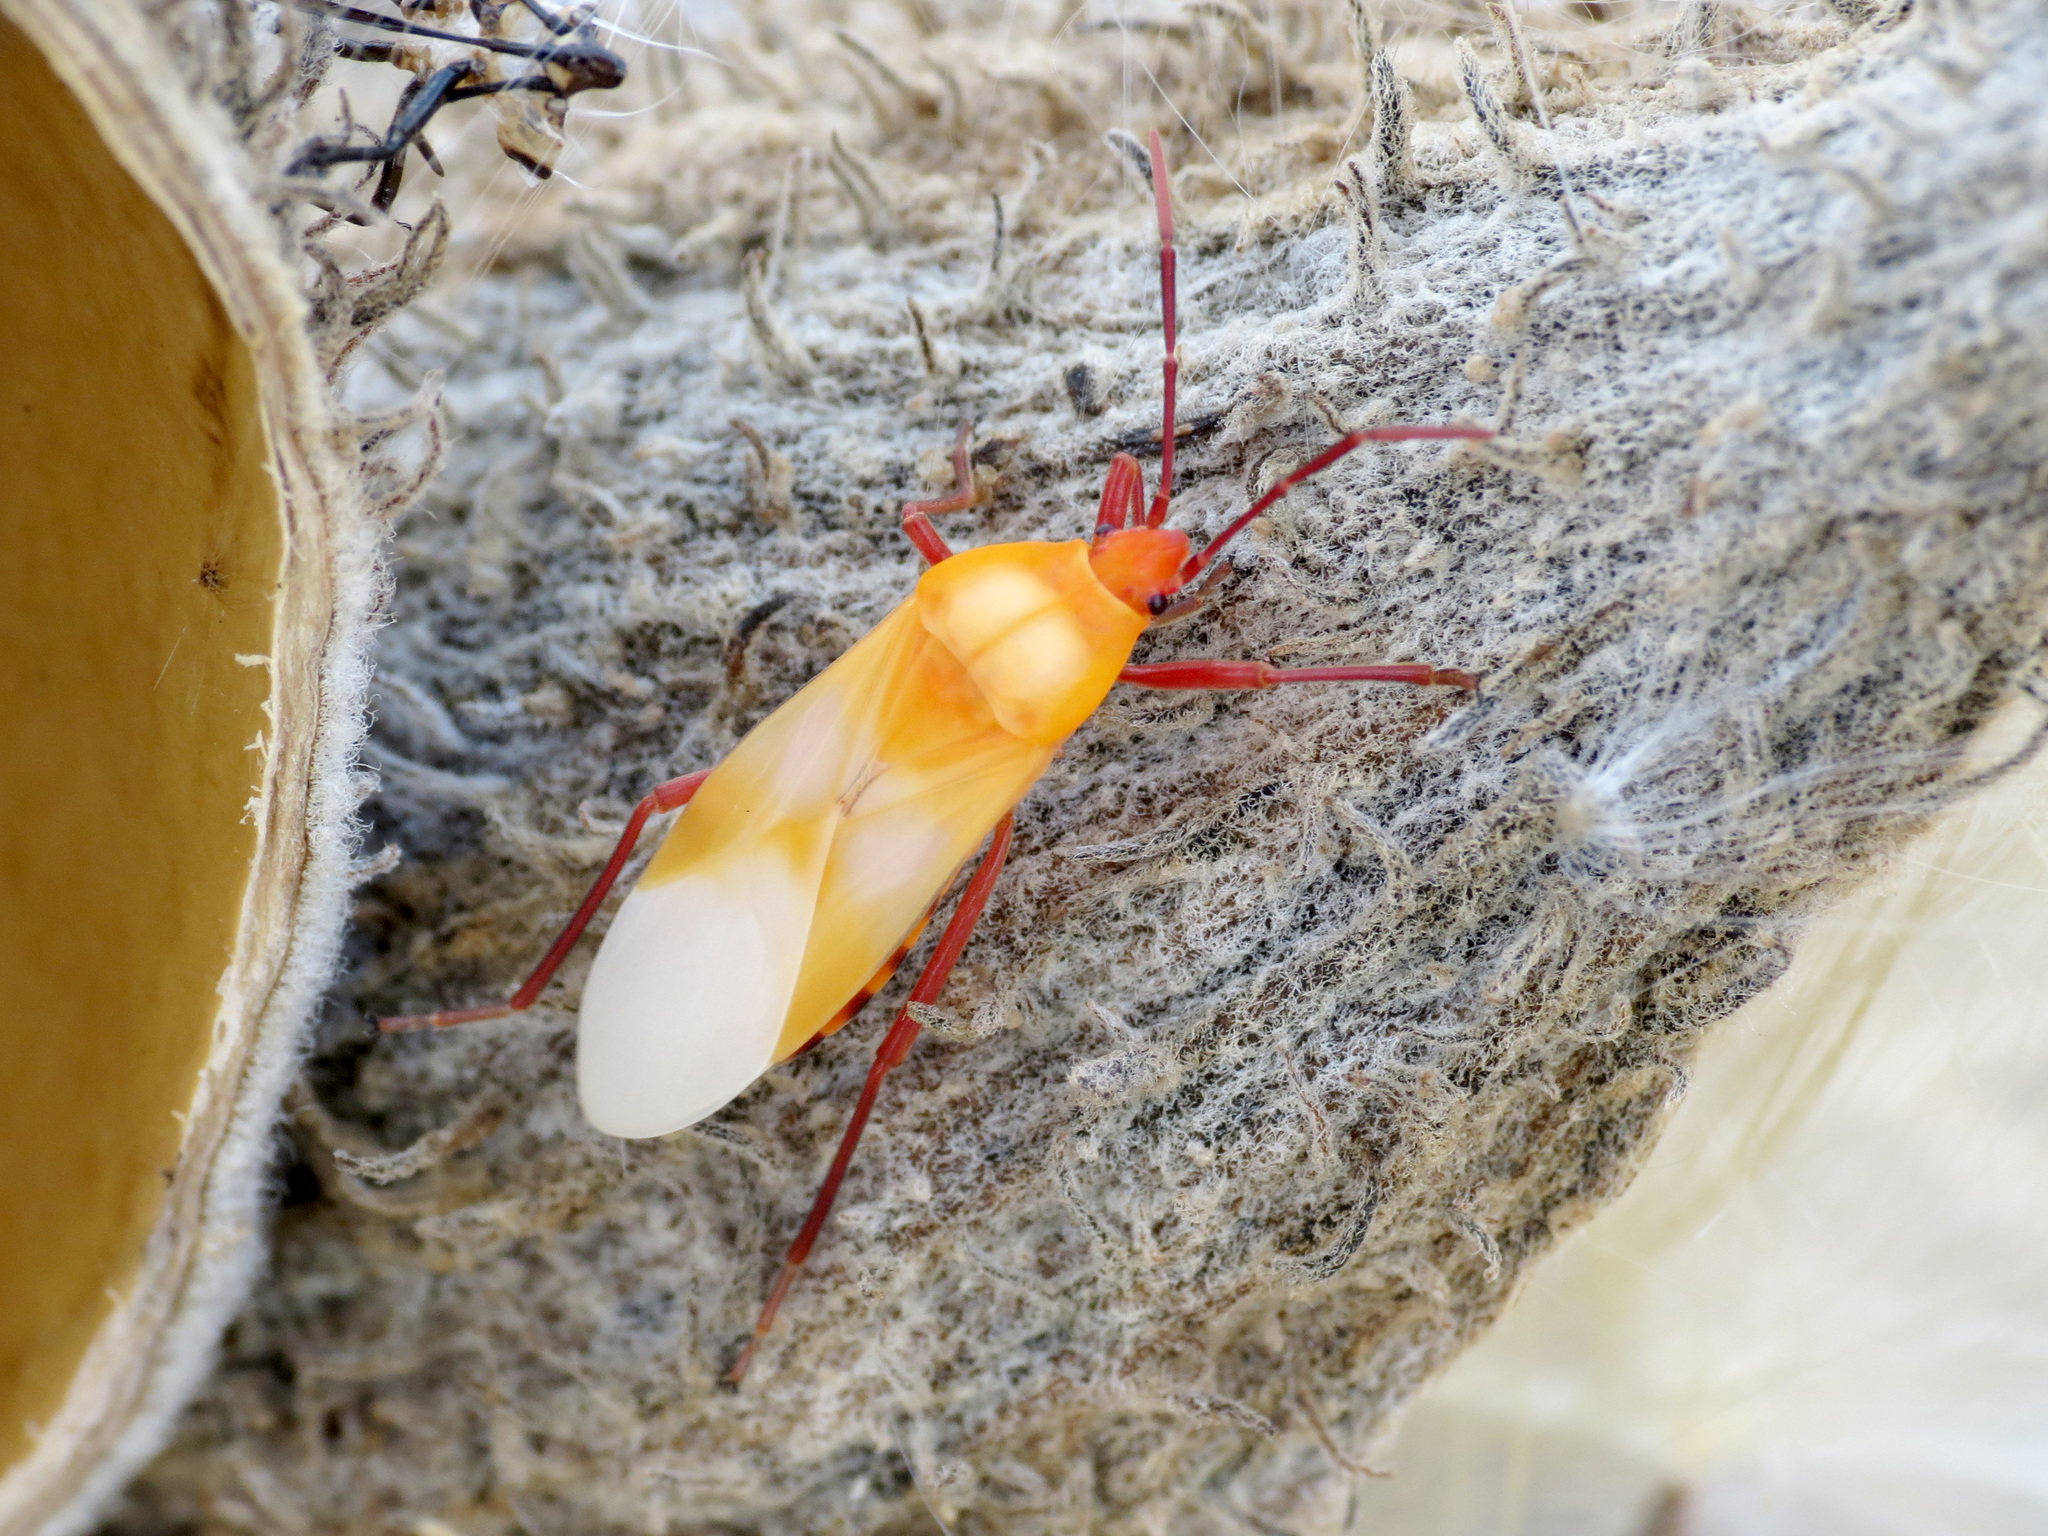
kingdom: Animalia
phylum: Arthropoda
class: Insecta
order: Hemiptera
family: Lygaeidae
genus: Oncopeltus
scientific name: Oncopeltus fasciatus
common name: Large milkweed bug
